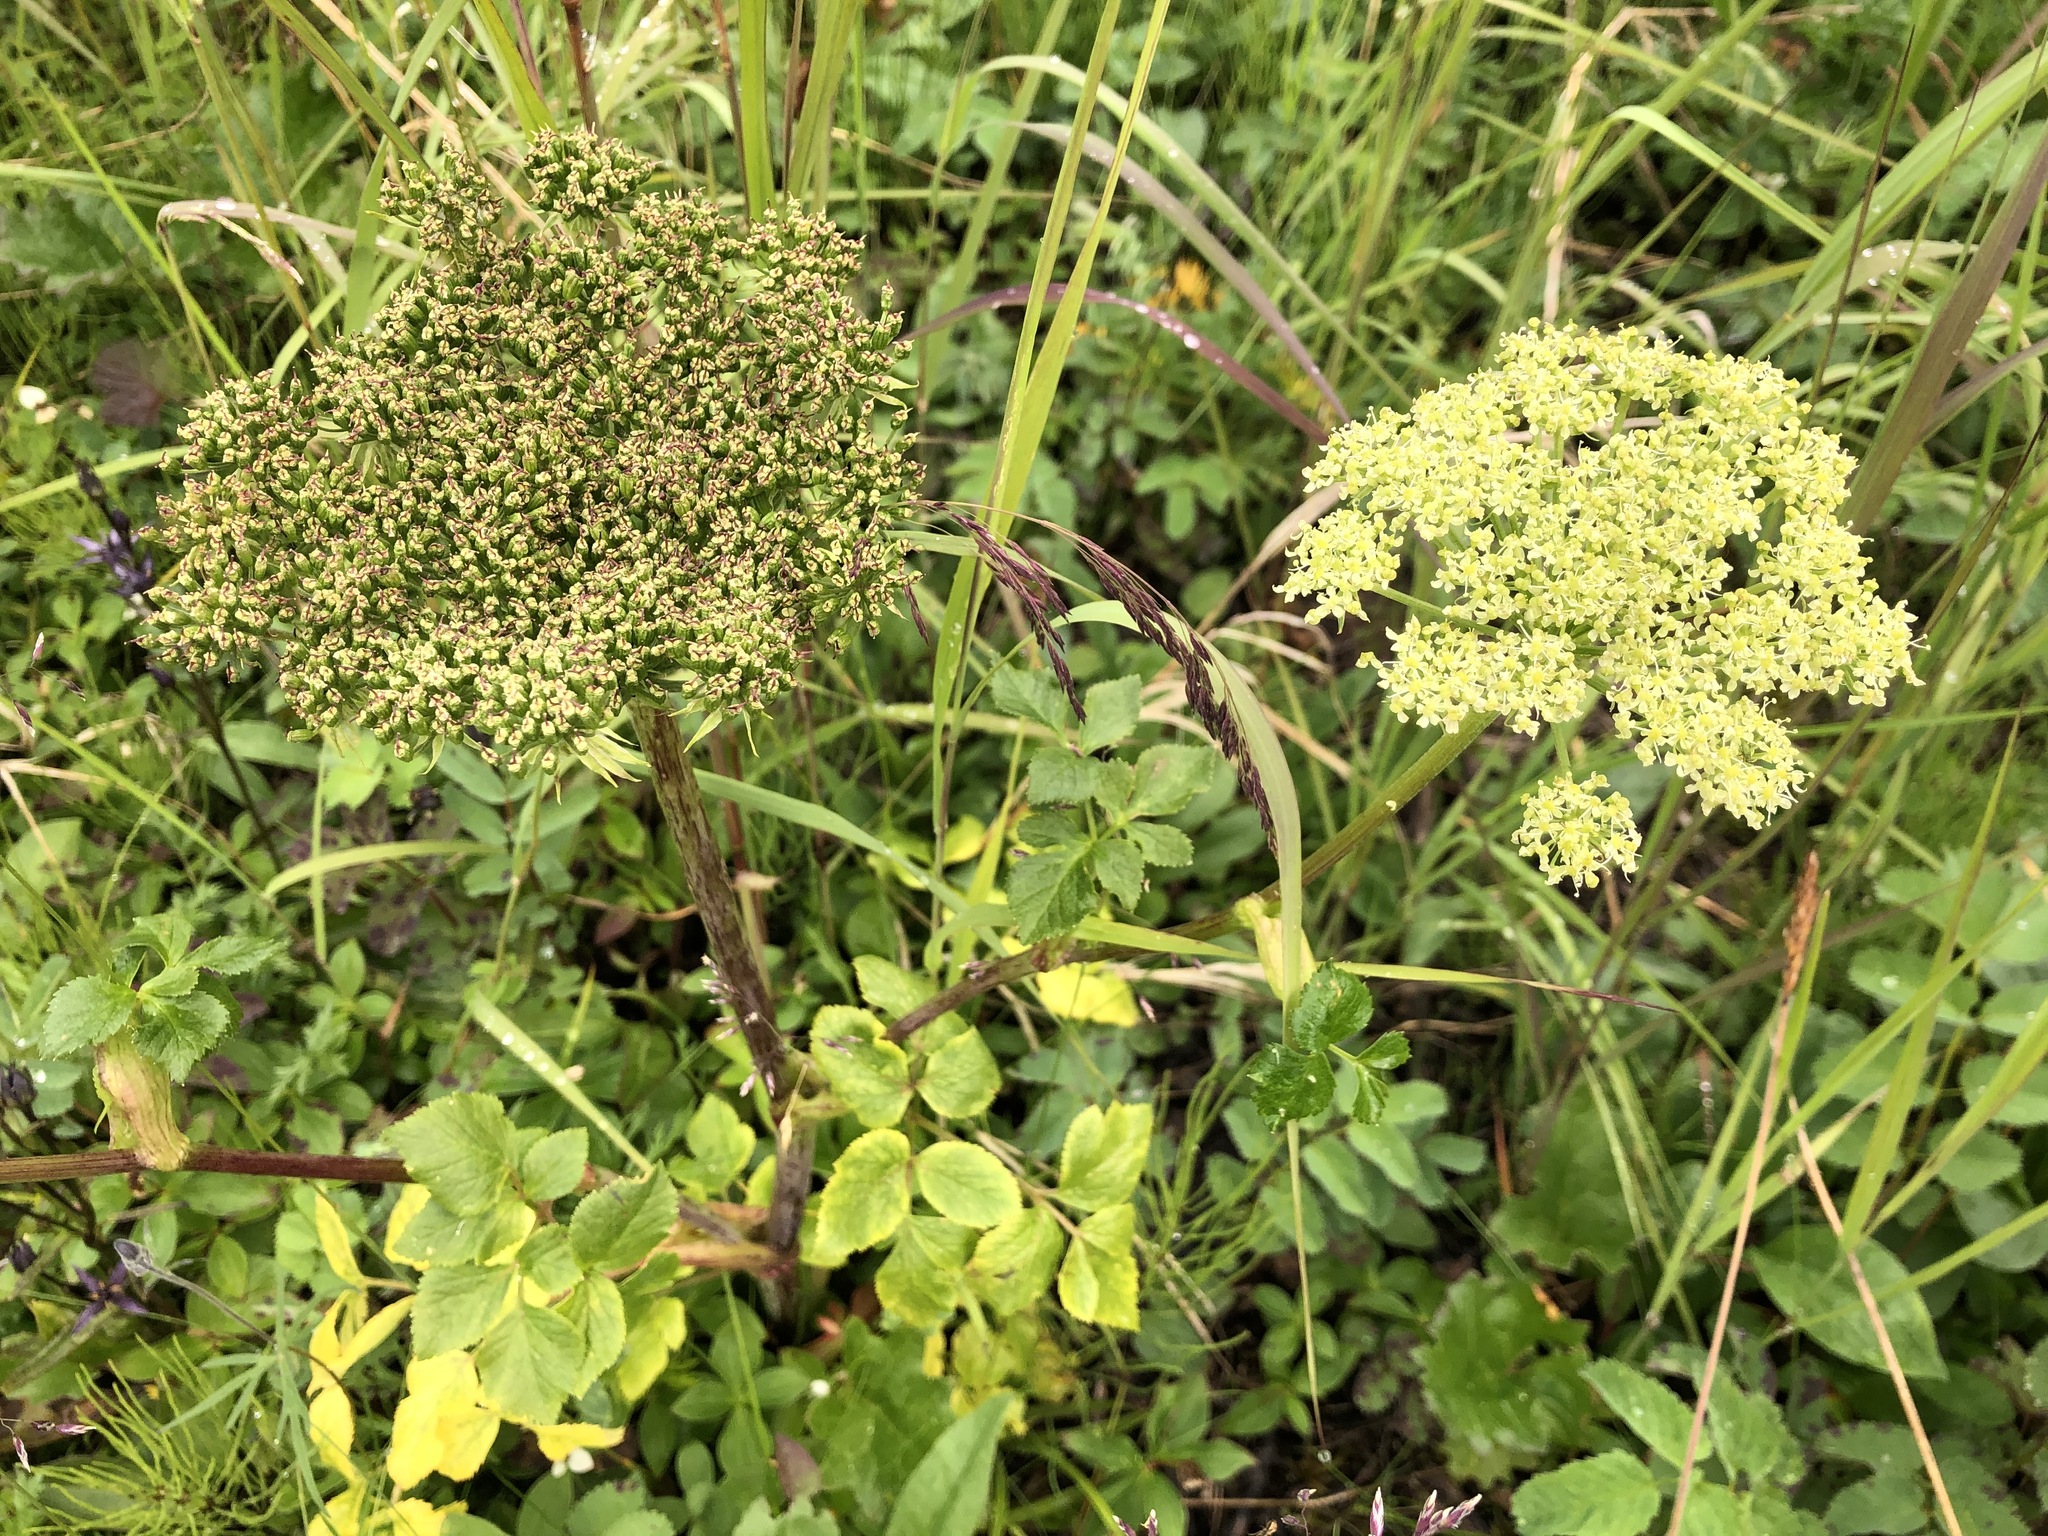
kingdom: Plantae
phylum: Tracheophyta
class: Magnoliopsida
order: Apiales
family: Apiaceae
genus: Angelica
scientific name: Angelica lucida
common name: Seabeach angelica
